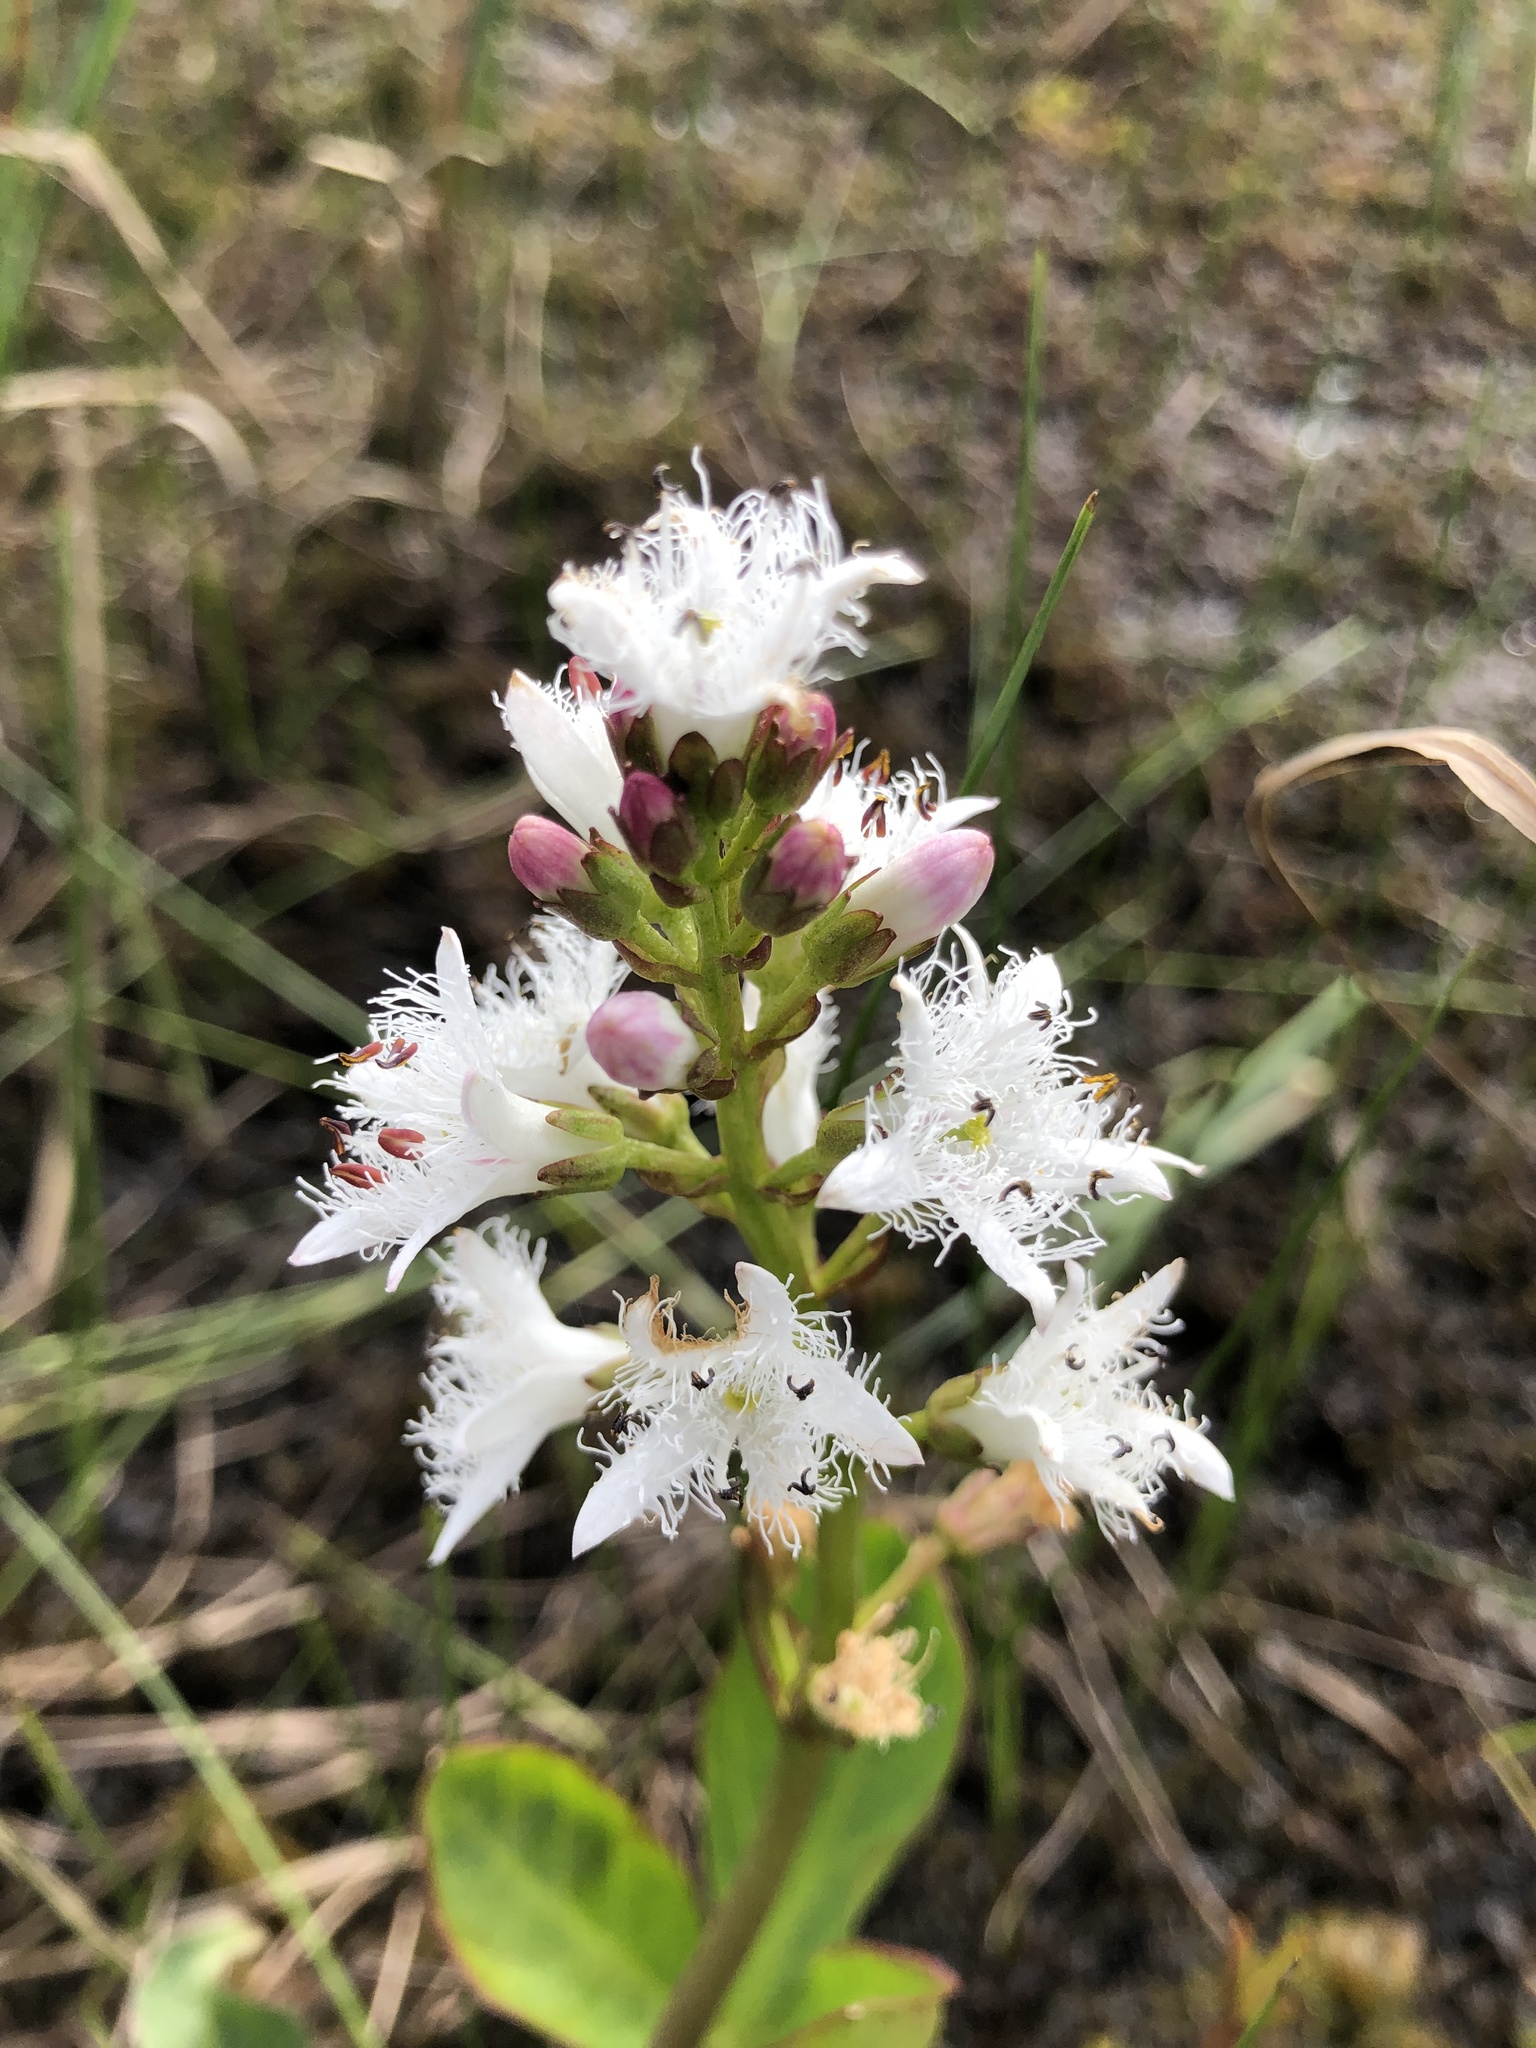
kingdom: Plantae
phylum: Tracheophyta
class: Magnoliopsida
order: Asterales
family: Menyanthaceae
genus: Menyanthes
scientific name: Menyanthes trifoliata
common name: Bogbean
